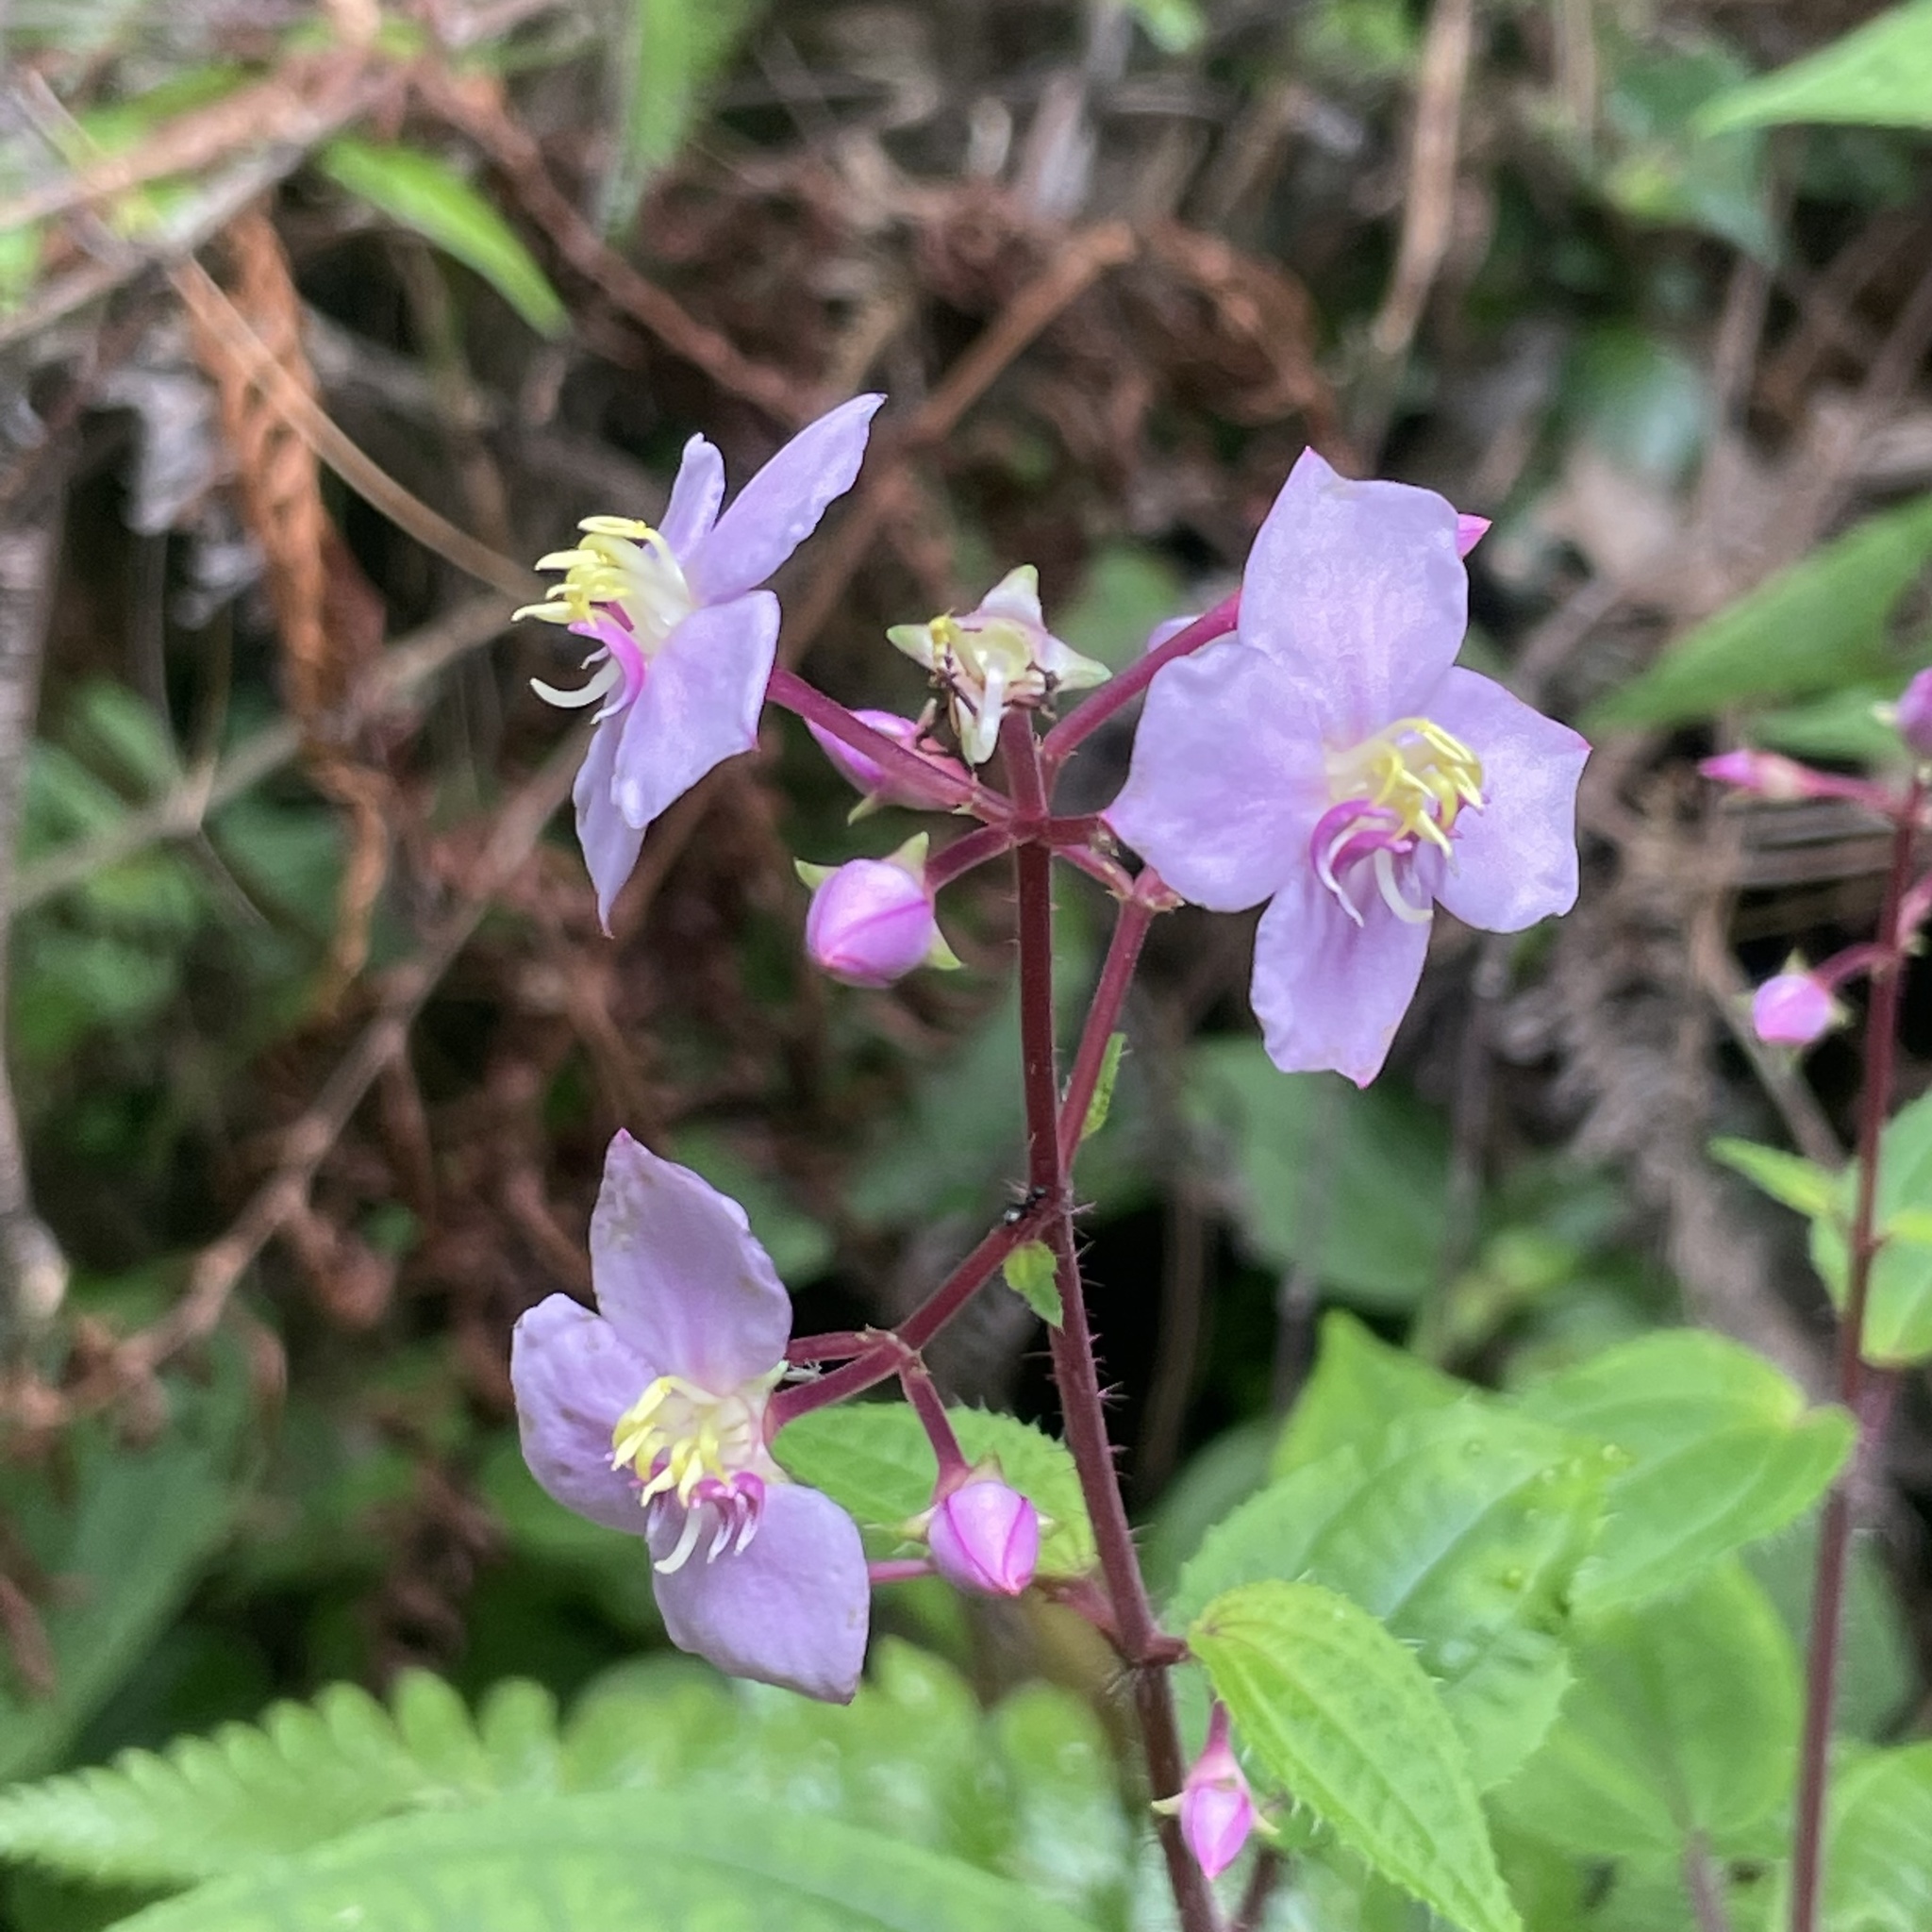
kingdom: Plantae
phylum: Tracheophyta
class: Magnoliopsida
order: Myrtales
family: Melastomataceae
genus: Bredia
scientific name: Bredia hirsuta
